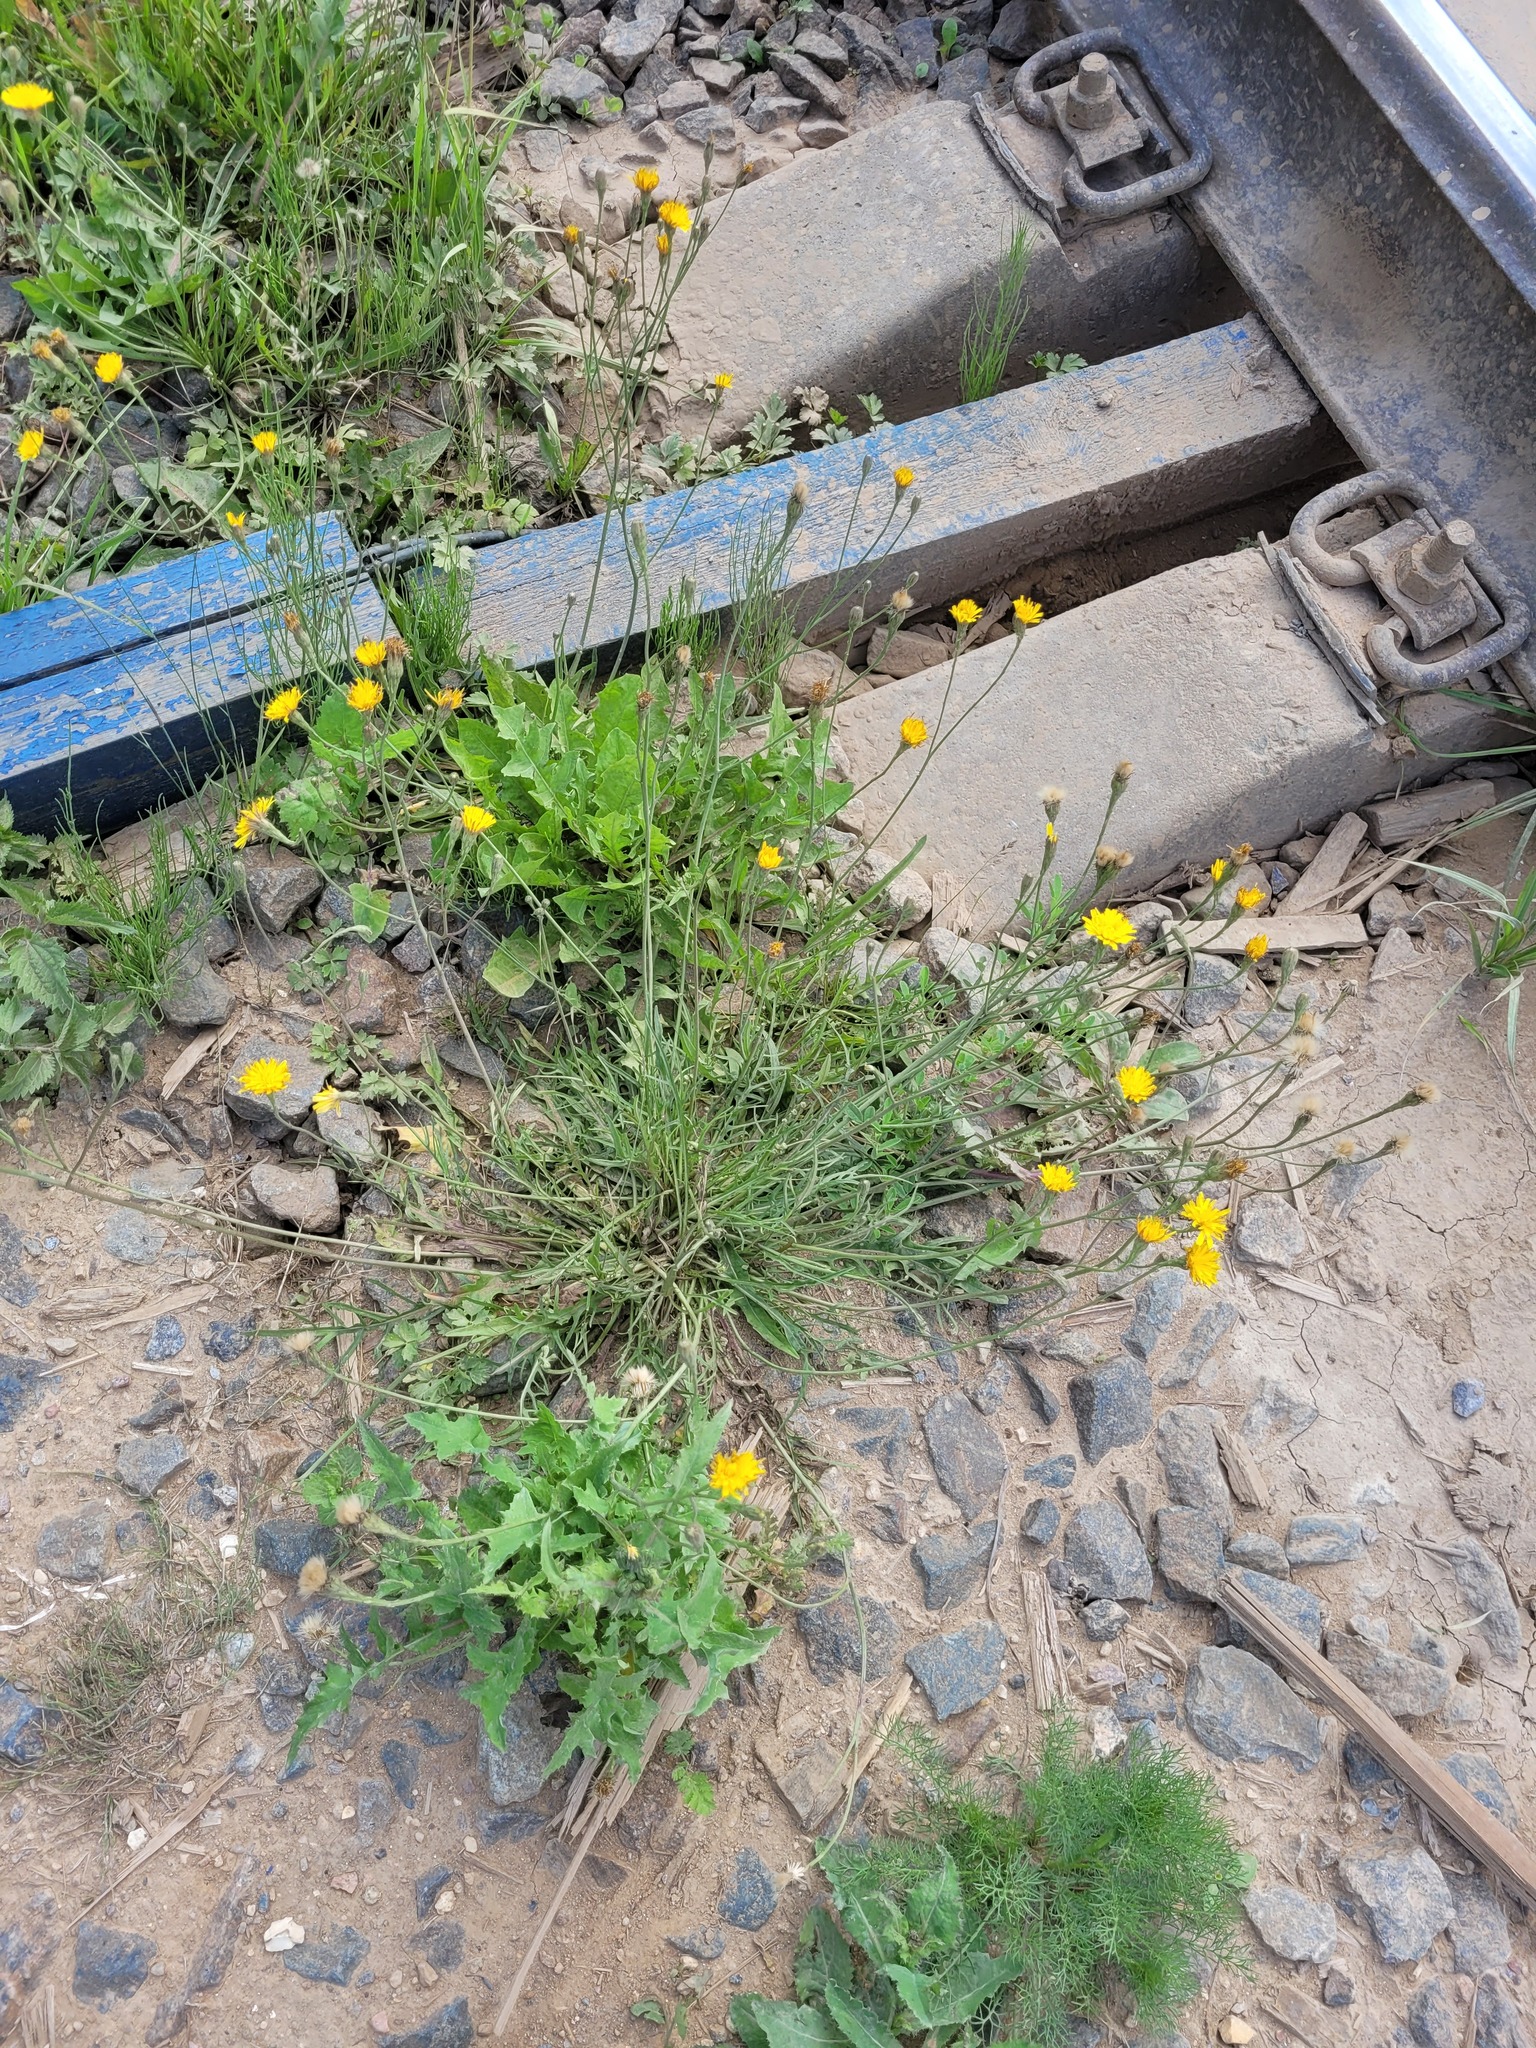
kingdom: Plantae
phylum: Tracheophyta
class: Magnoliopsida
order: Asterales
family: Asteraceae
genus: Scorzoneroides
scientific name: Scorzoneroides autumnalis
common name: Autumn hawkbit
